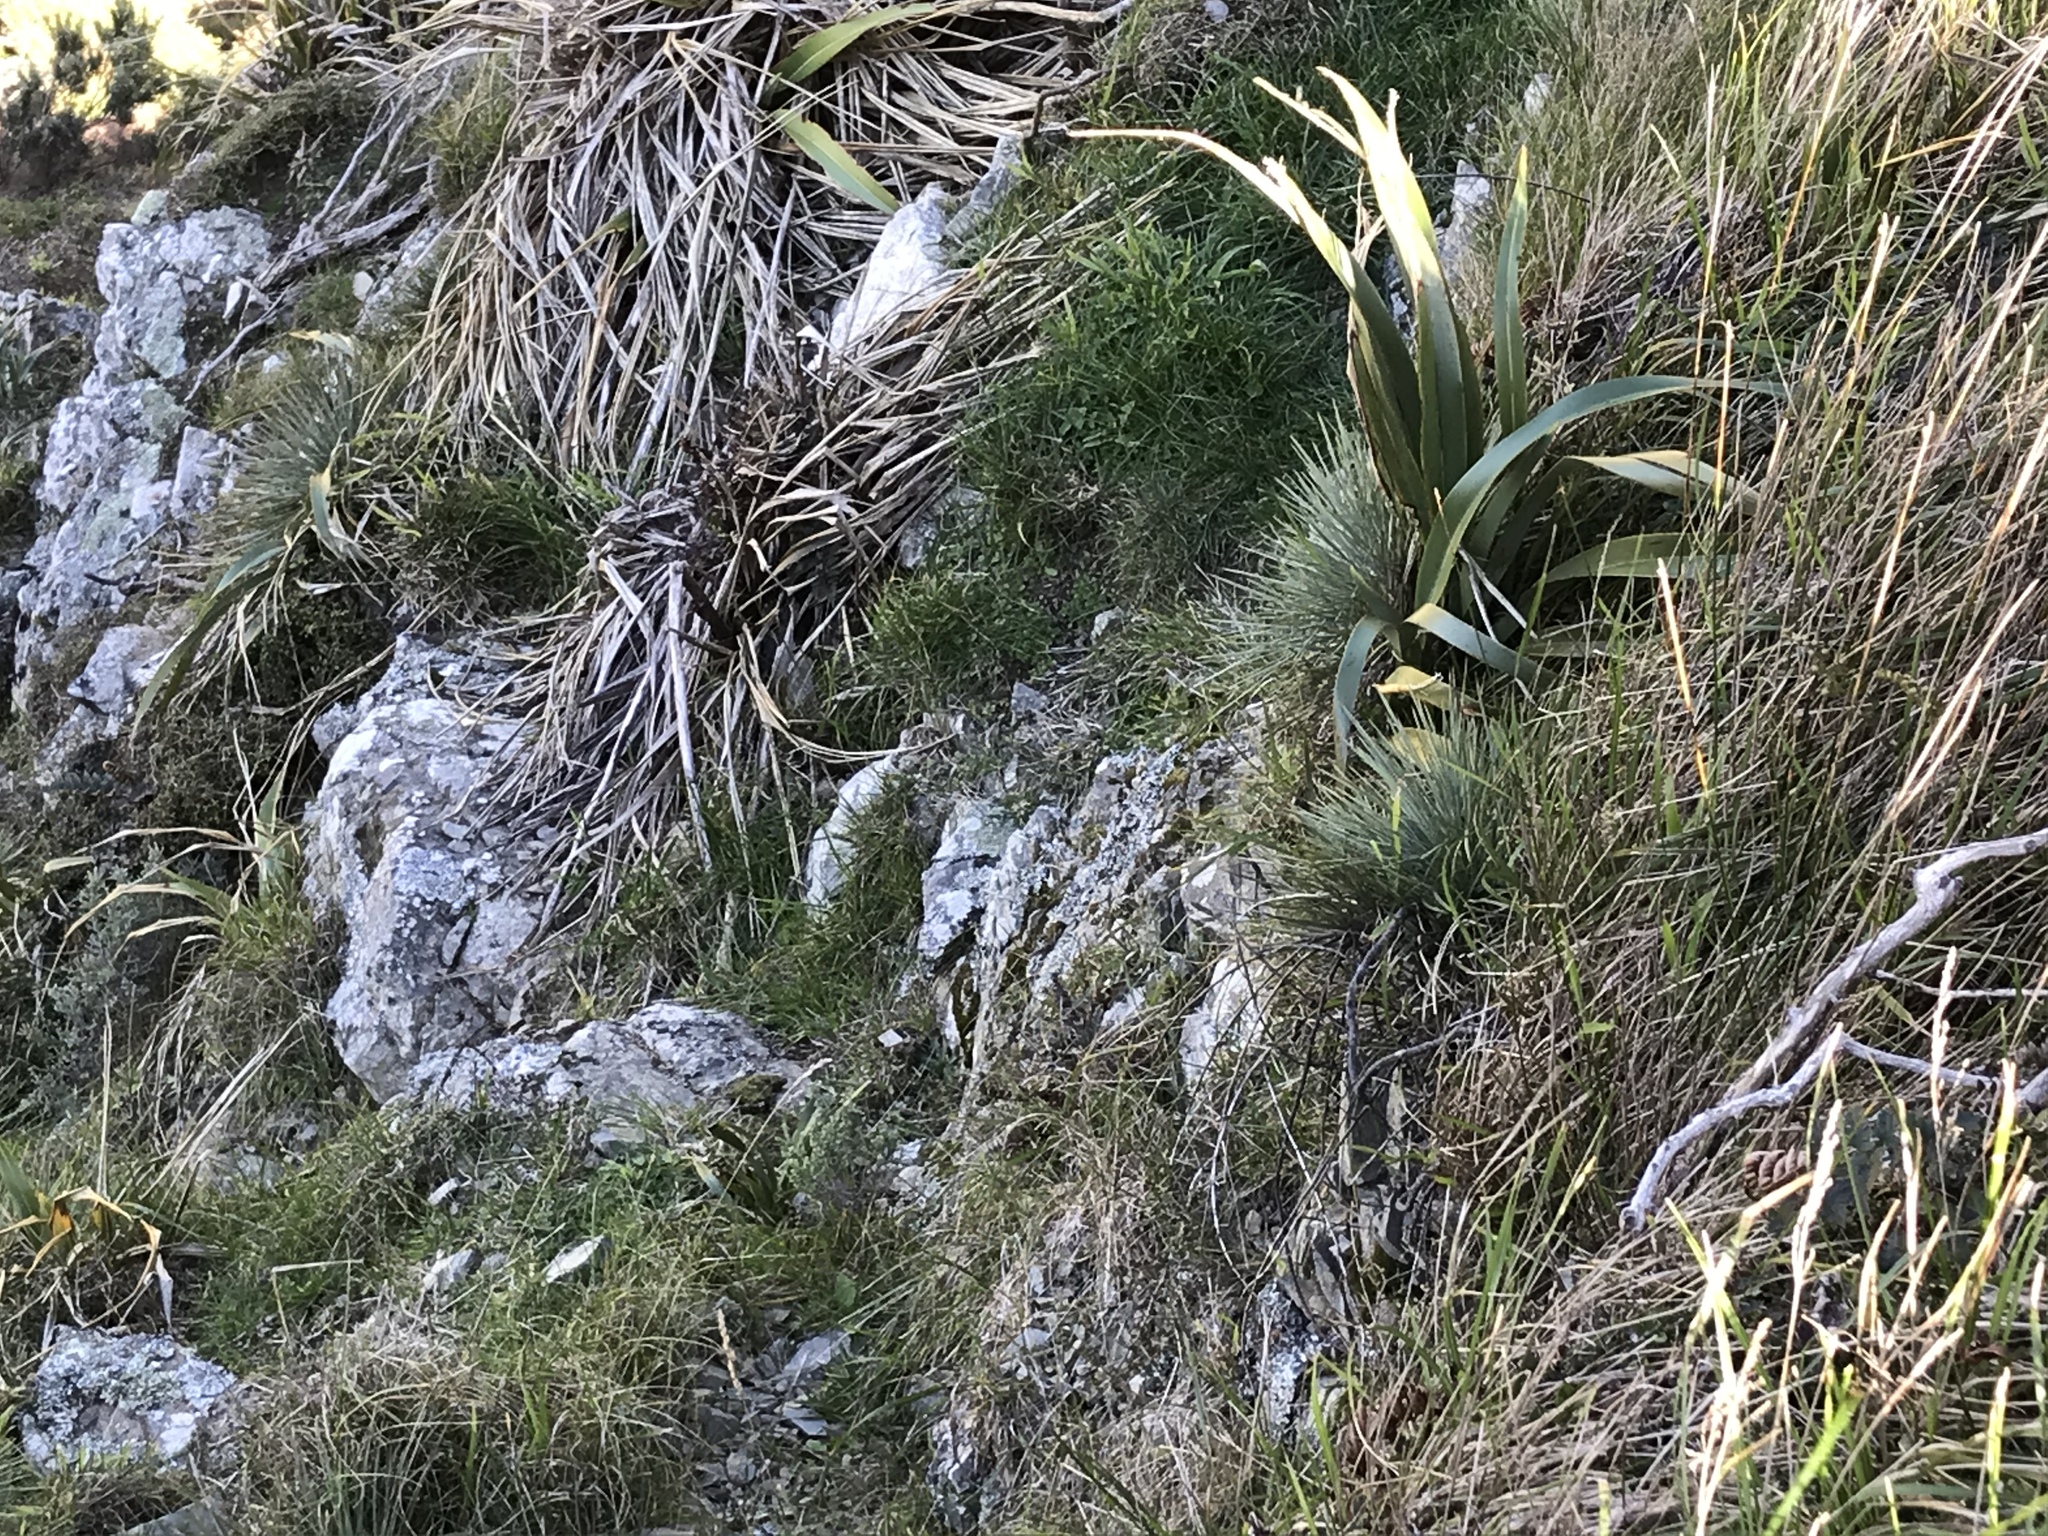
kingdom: Plantae
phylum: Tracheophyta
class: Magnoliopsida
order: Apiales
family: Apiaceae
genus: Aciphylla
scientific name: Aciphylla squarrosa
